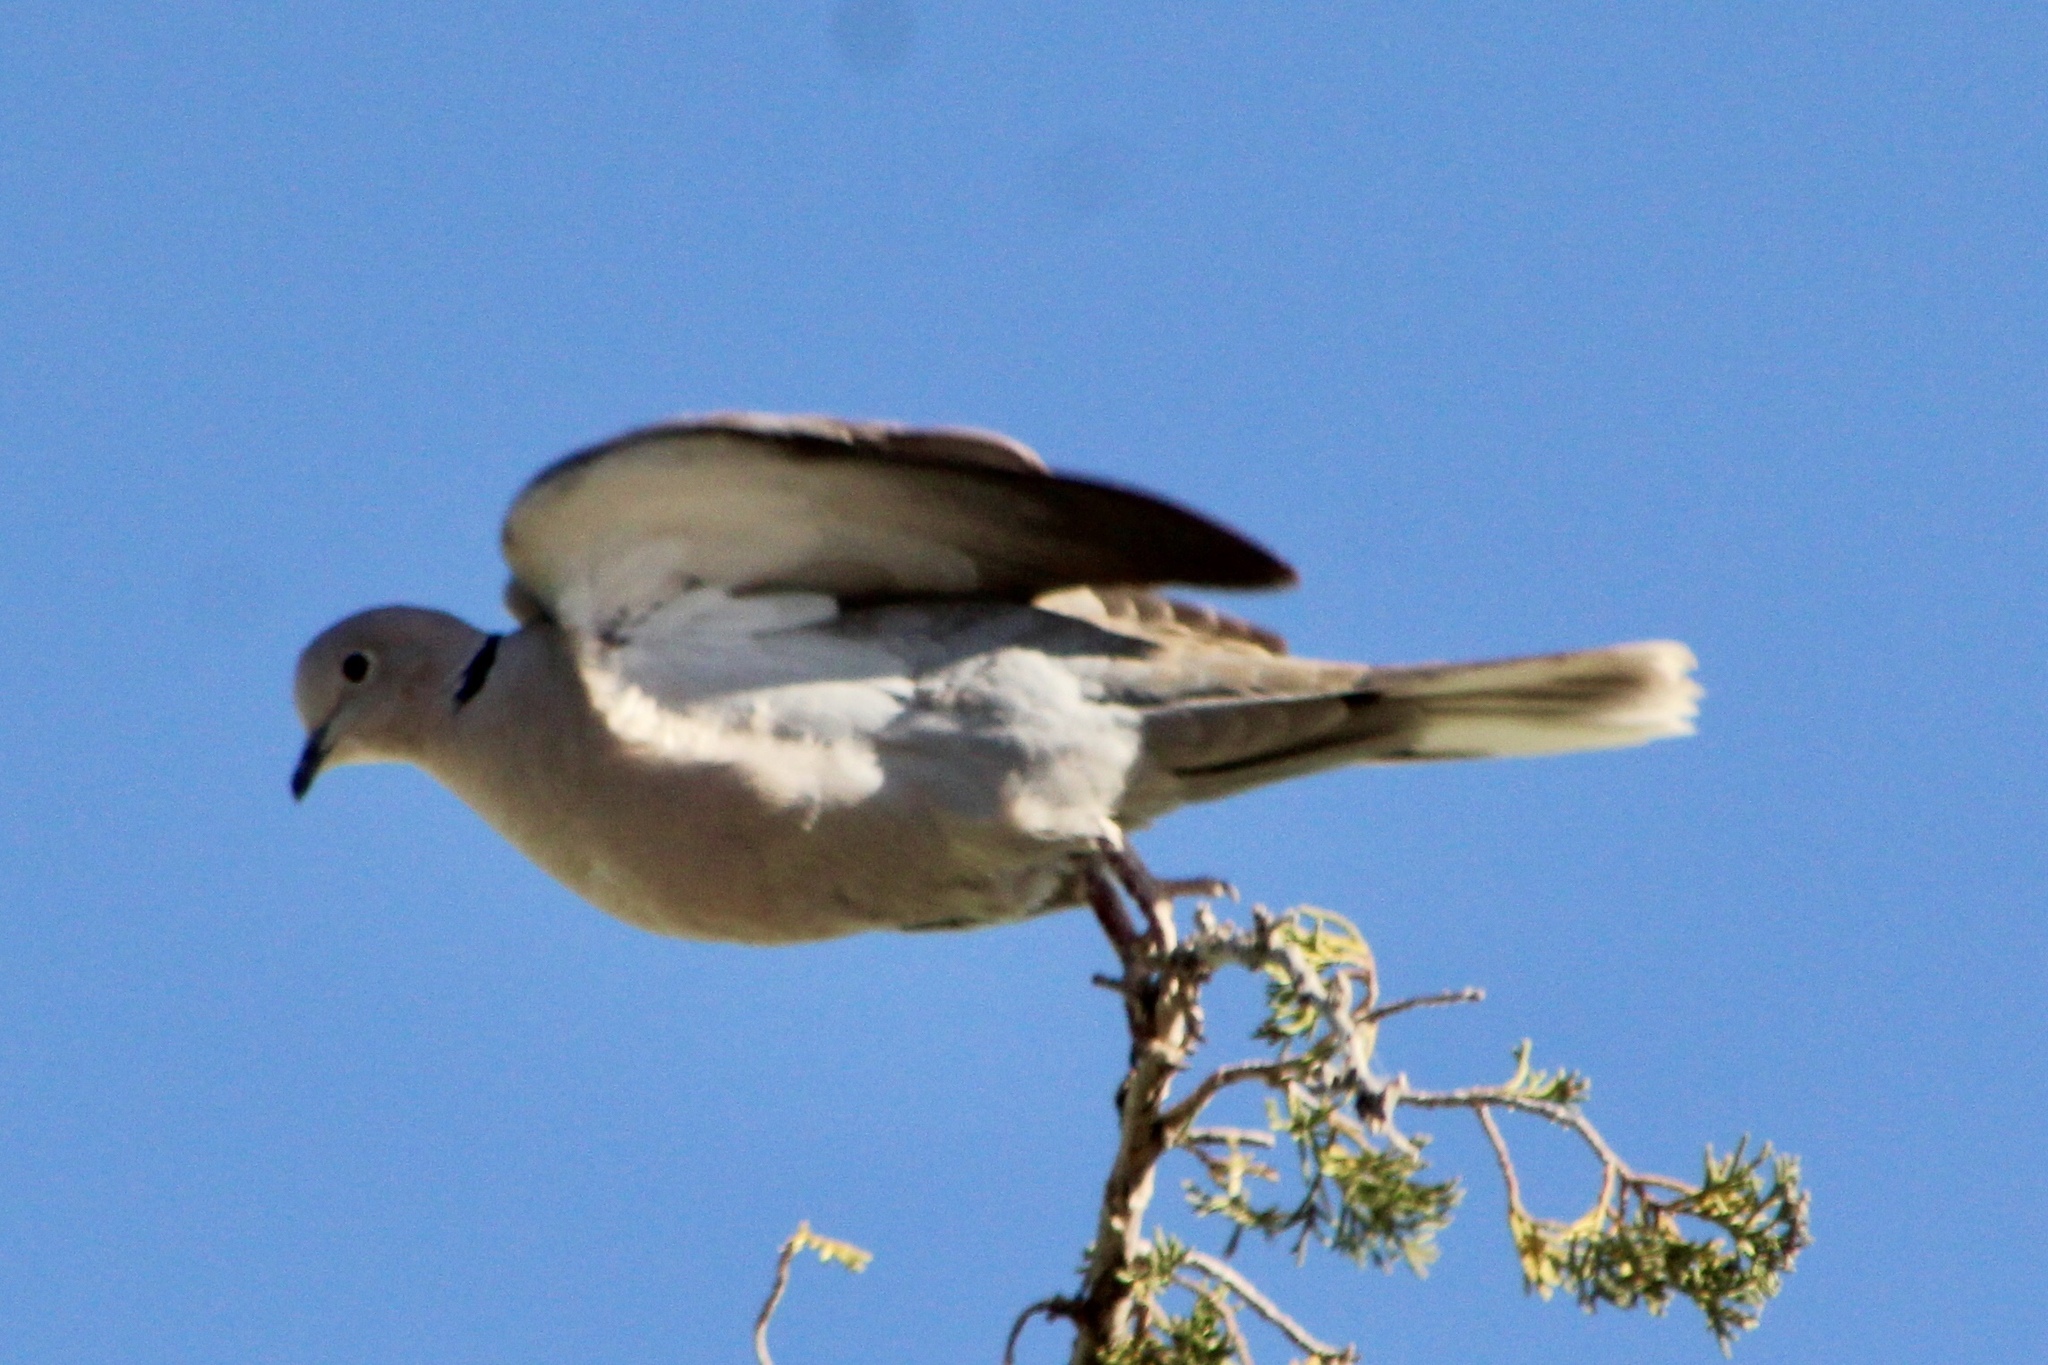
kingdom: Animalia
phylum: Chordata
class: Aves
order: Columbiformes
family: Columbidae
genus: Streptopelia
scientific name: Streptopelia decaocto
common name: Eurasian collared dove
